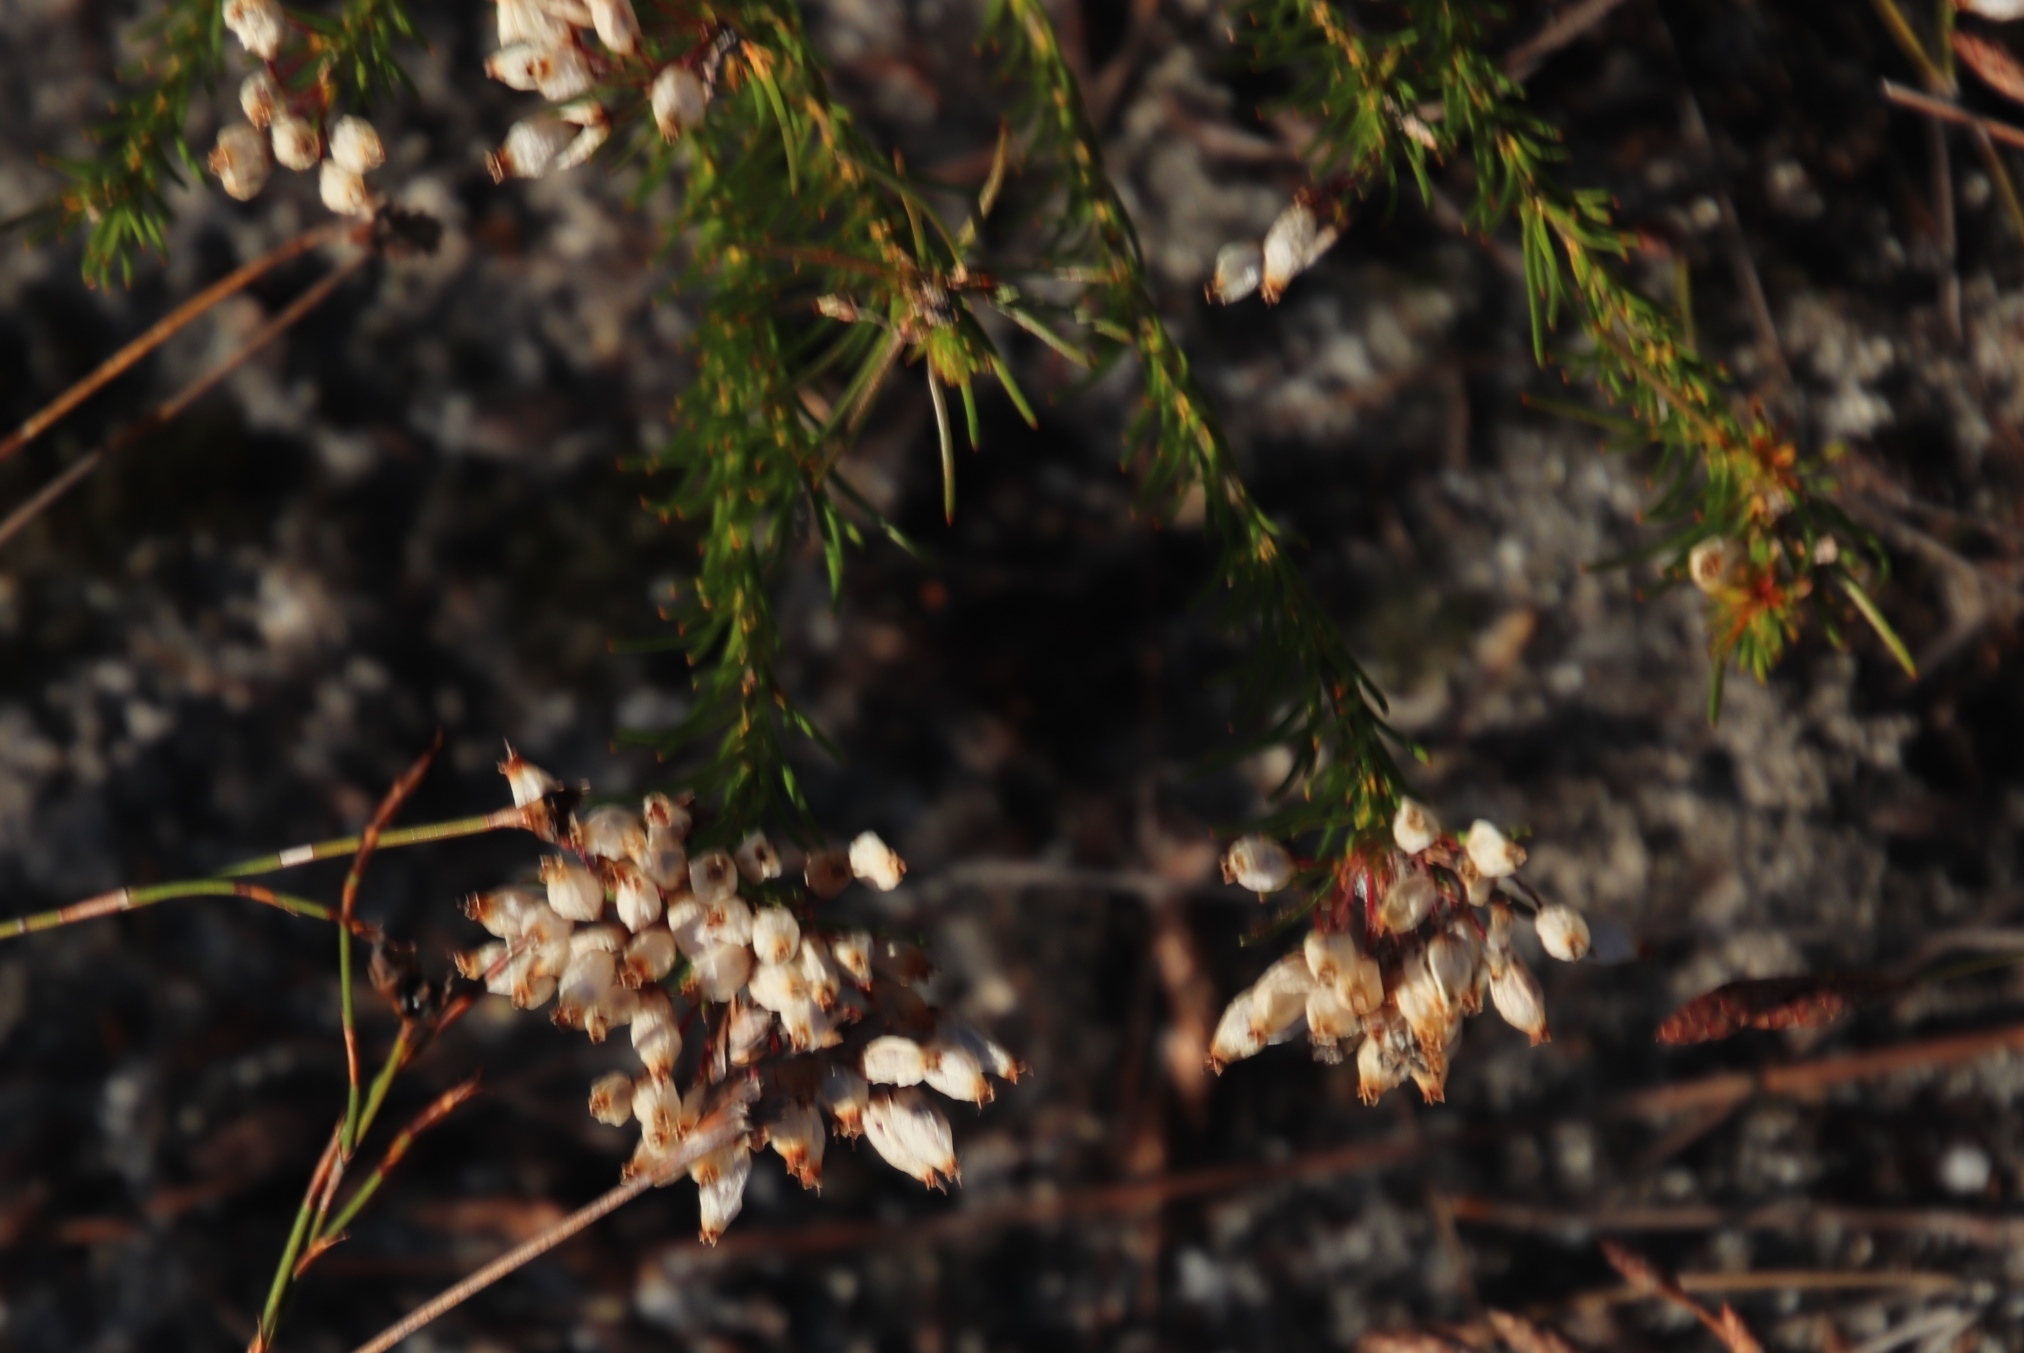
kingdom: Plantae
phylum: Tracheophyta
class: Magnoliopsida
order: Ericales
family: Ericaceae
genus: Erica
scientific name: Erica inflata
